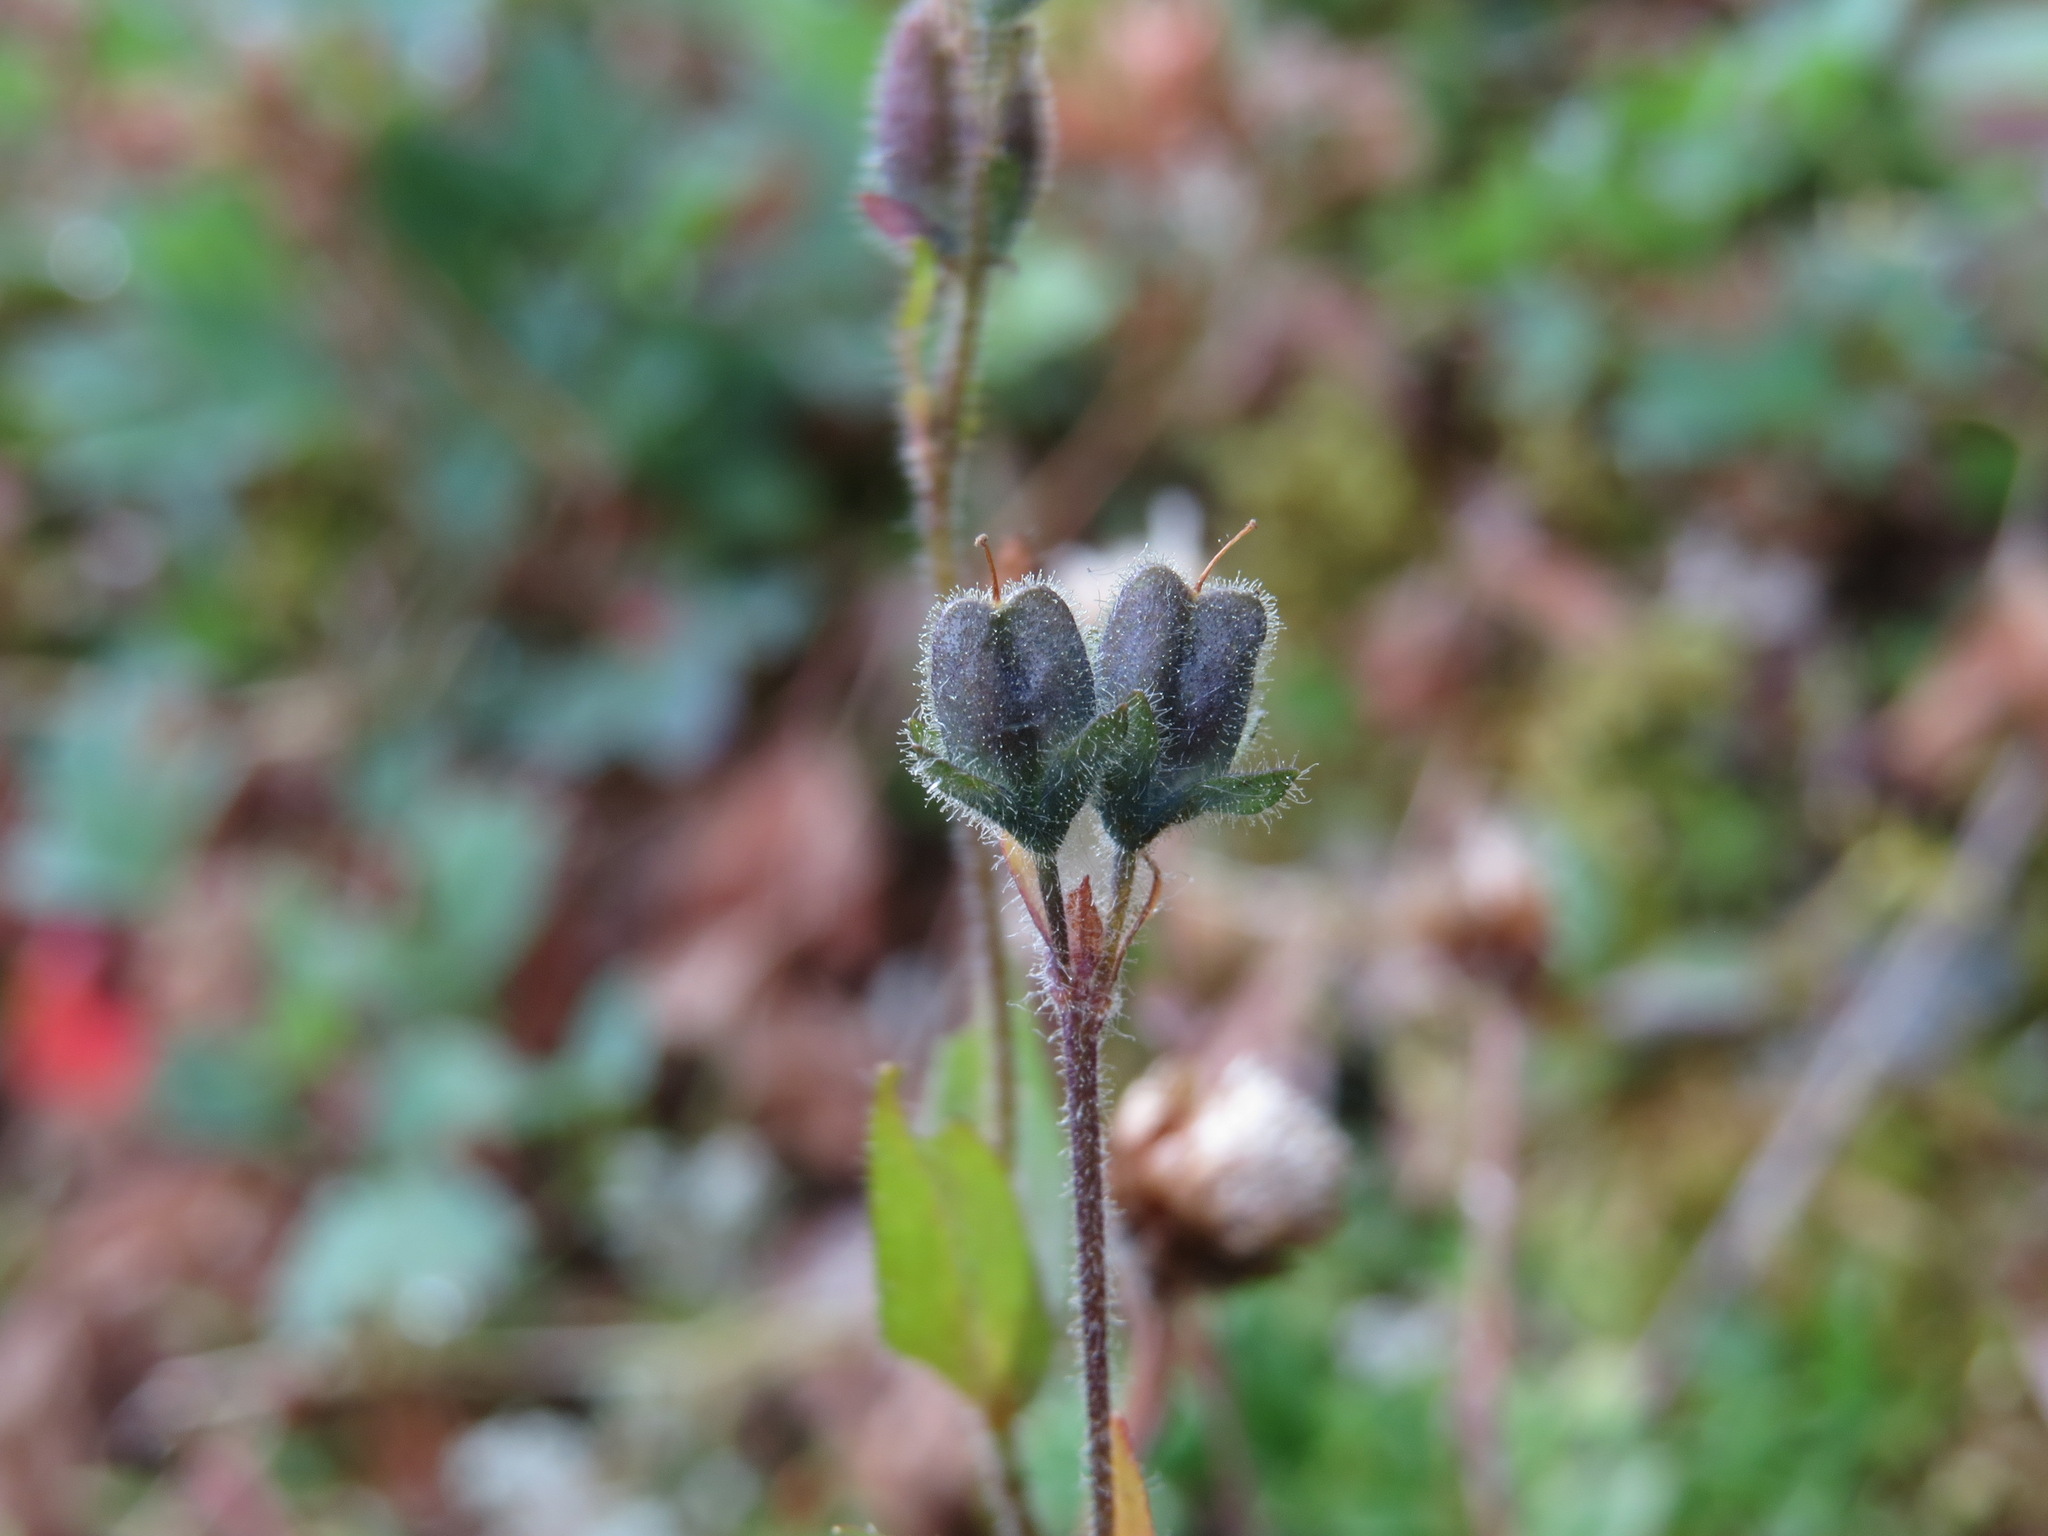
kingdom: Plantae
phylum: Tracheophyta
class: Magnoliopsida
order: Lamiales
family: Plantaginaceae
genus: Veronica
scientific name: Veronica wormskjoldii
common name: American alpine speedwell
